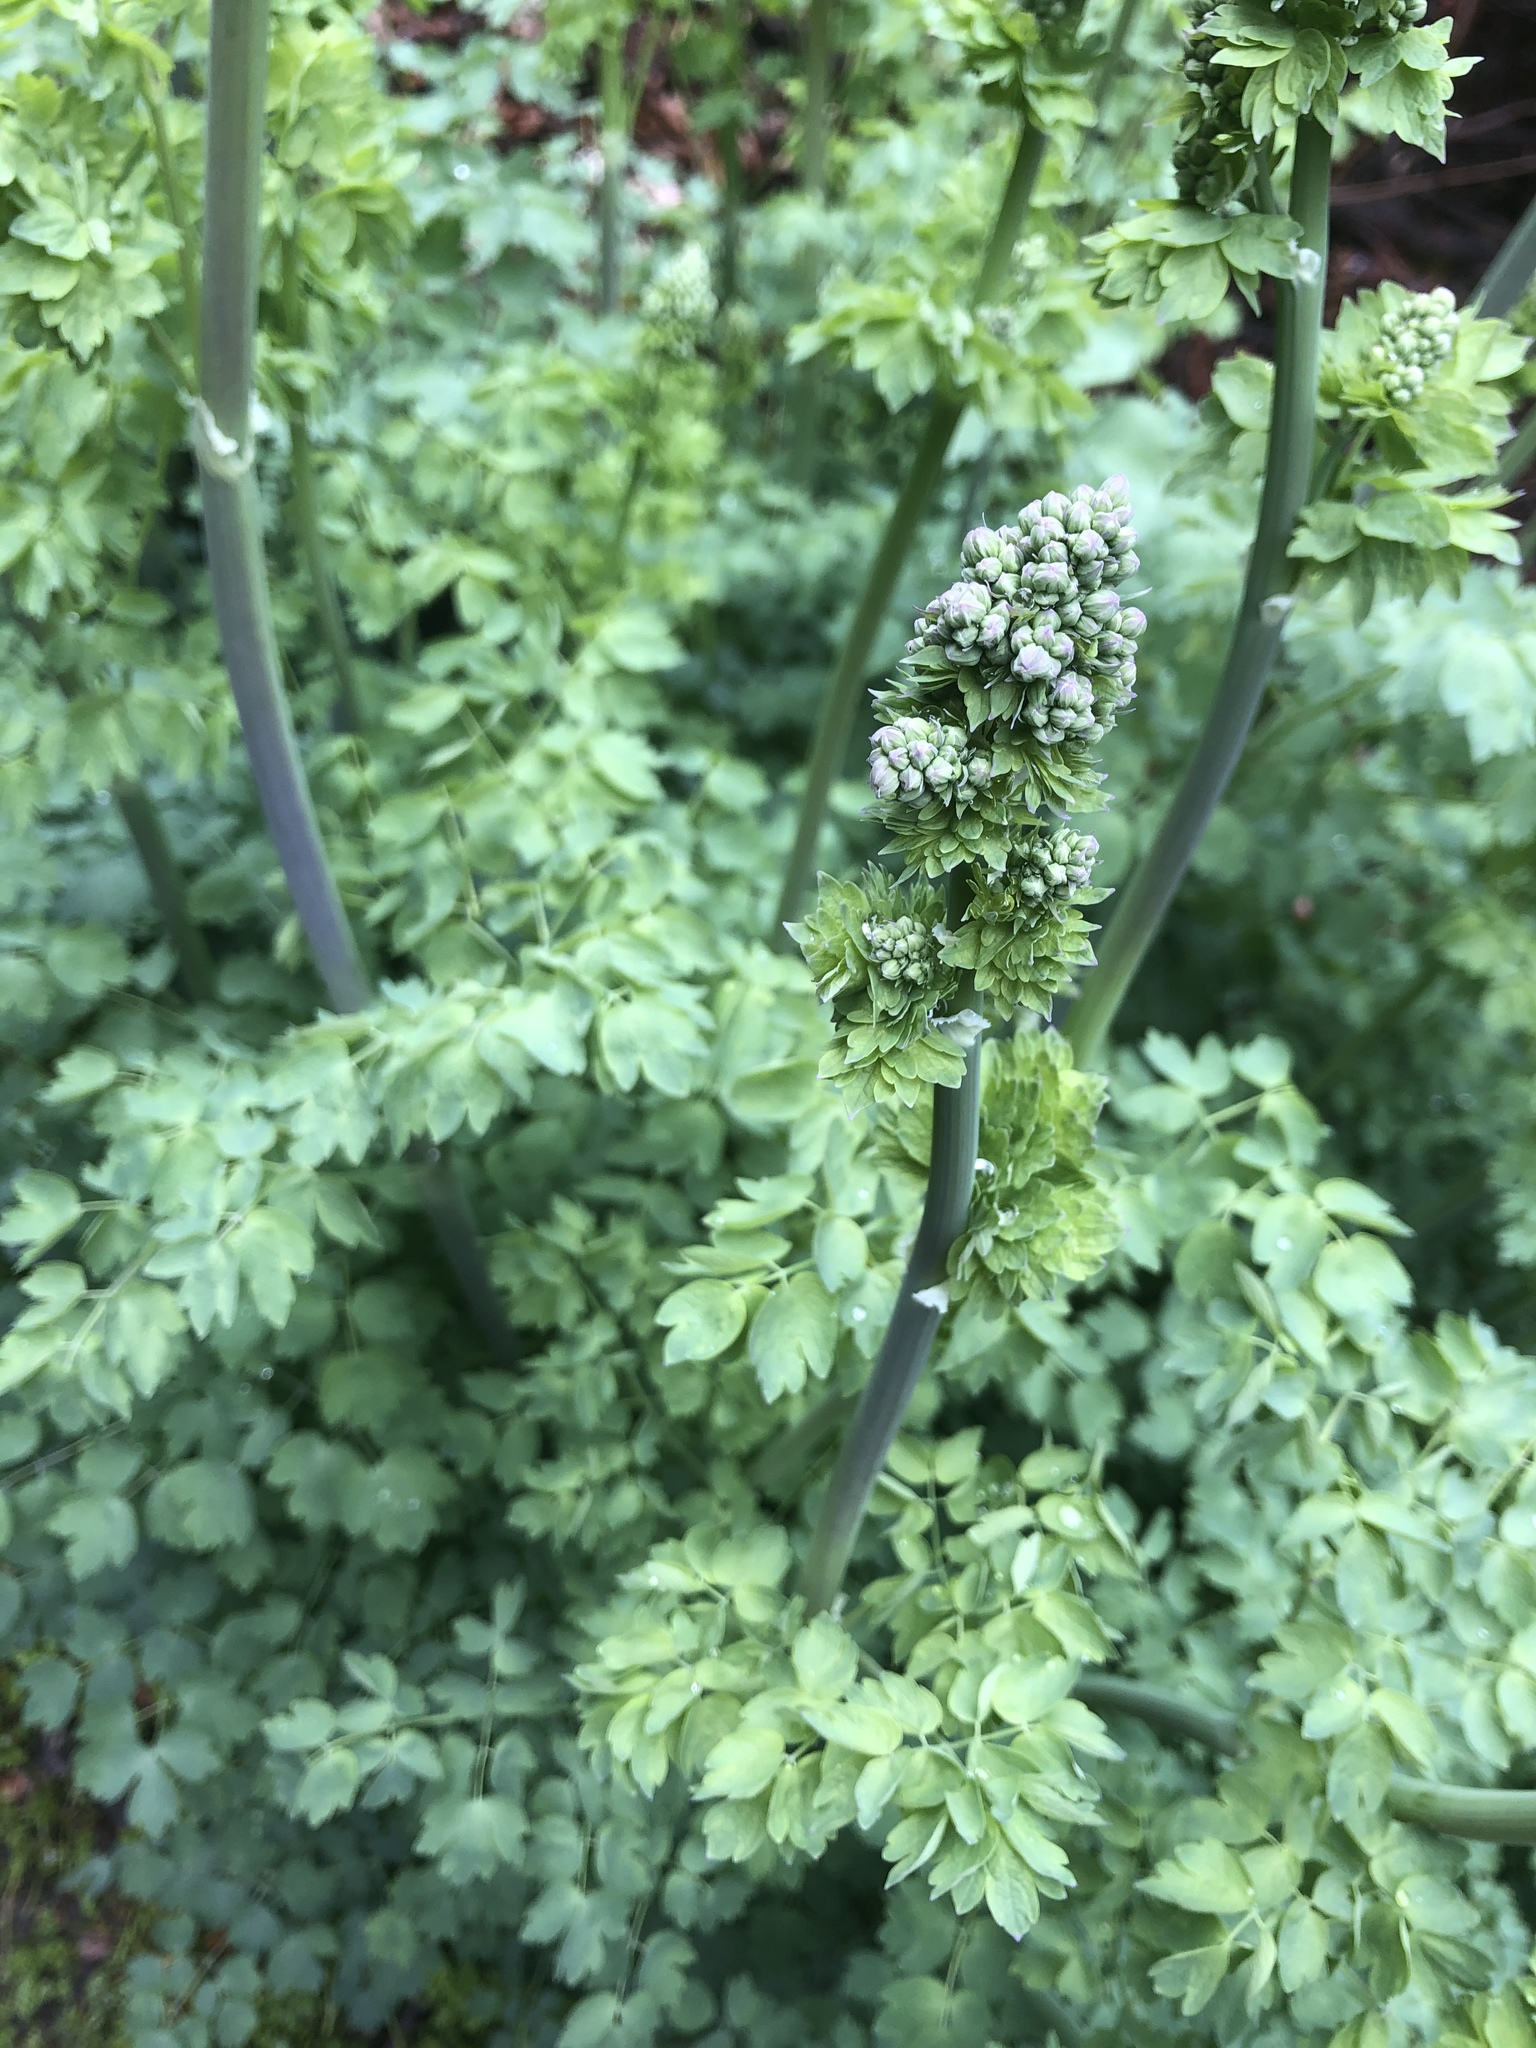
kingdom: Plantae
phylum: Tracheophyta
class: Magnoliopsida
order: Ranunculales
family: Ranunculaceae
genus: Thalictrum
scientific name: Thalictrum fendleri
